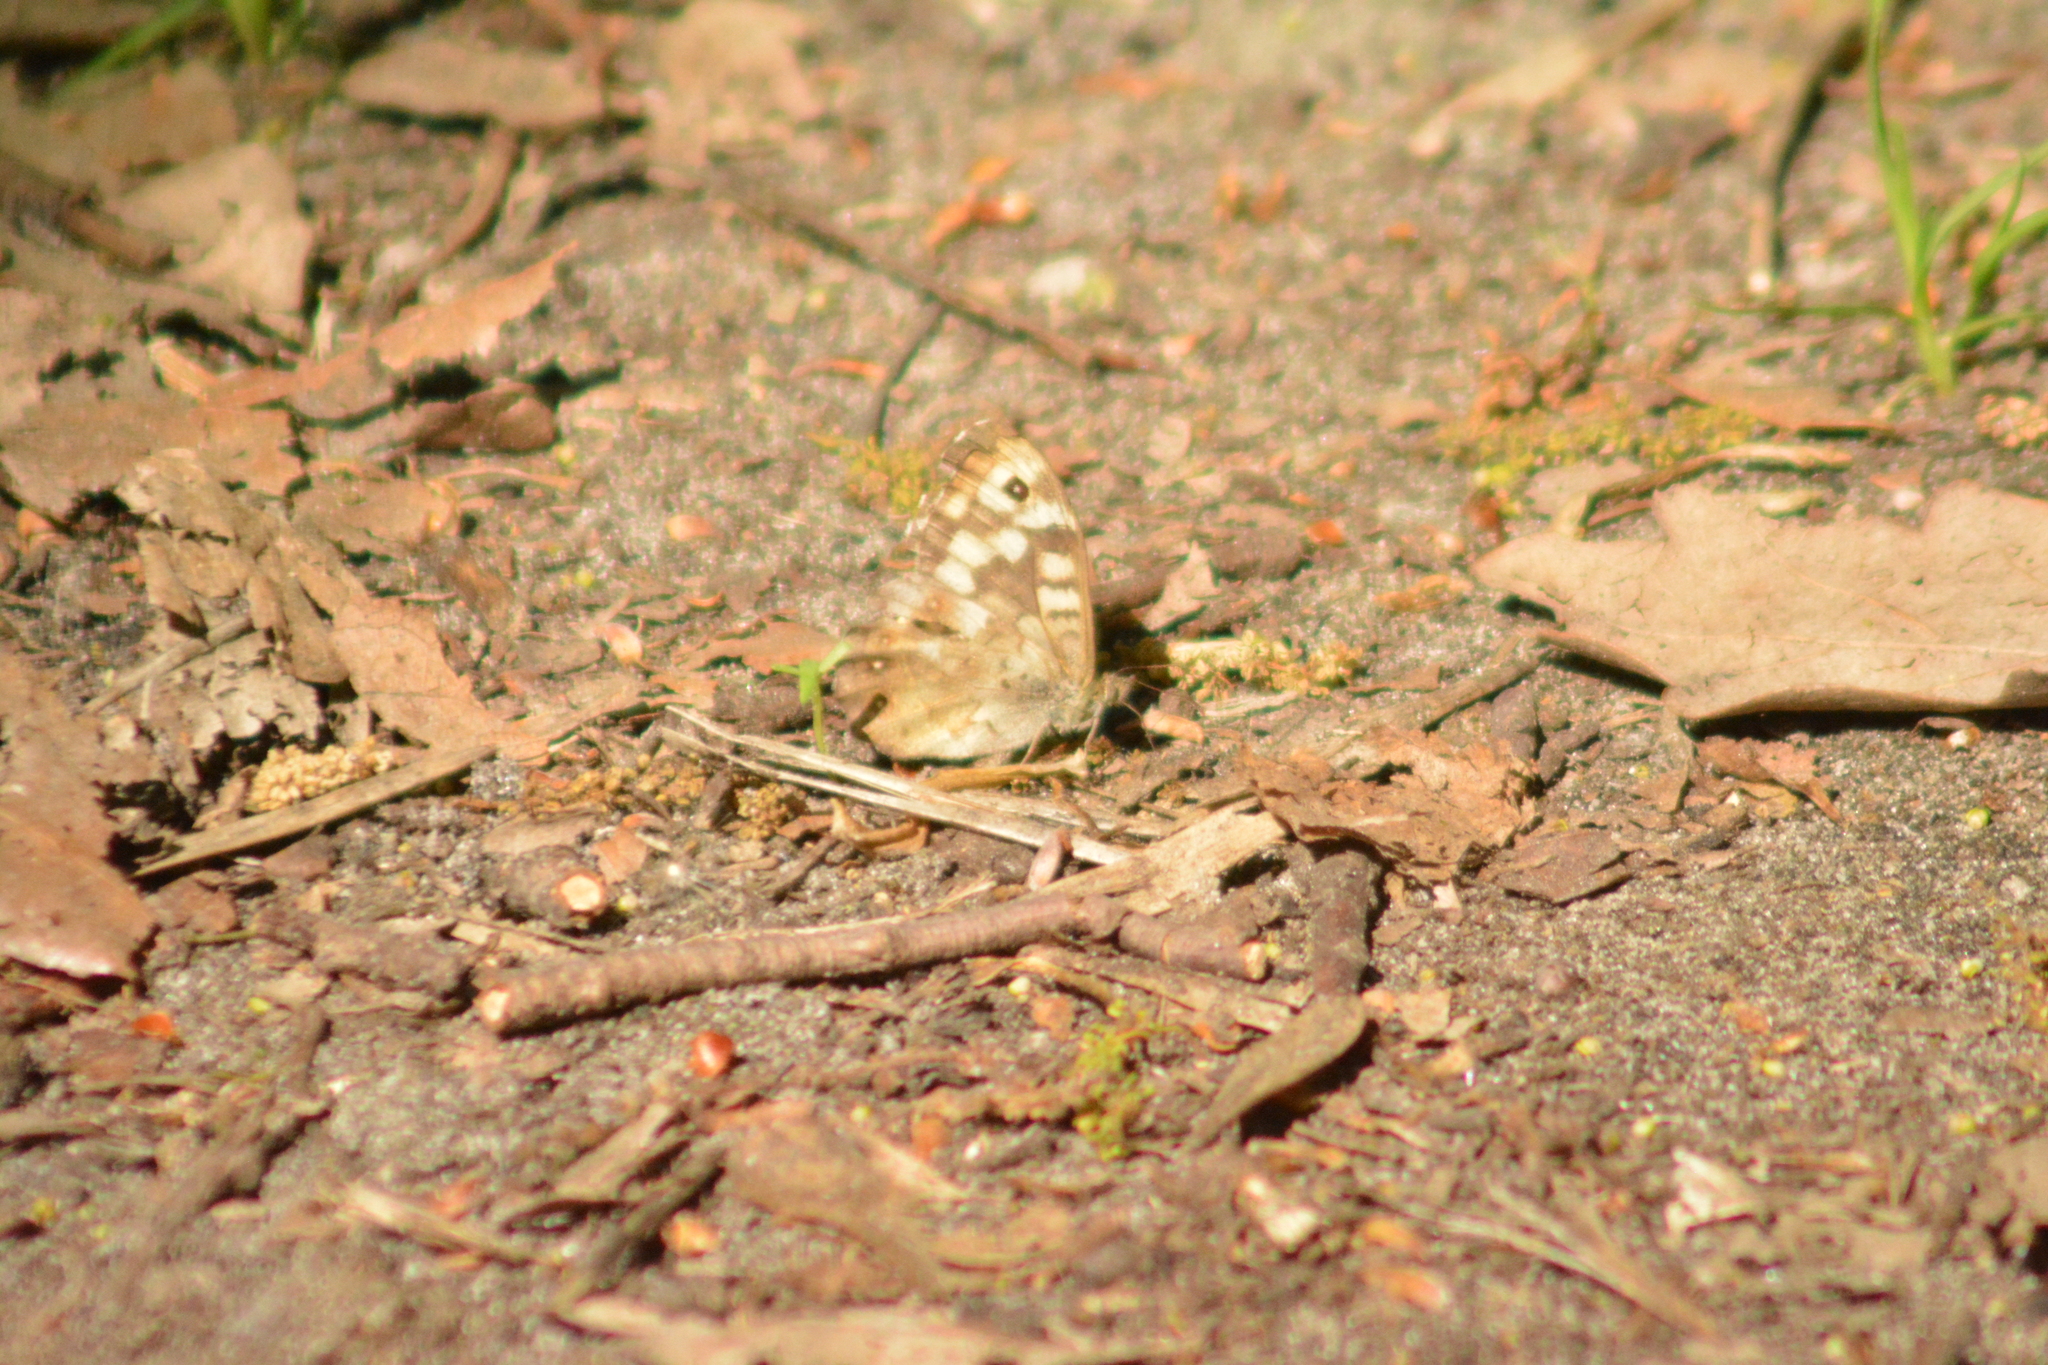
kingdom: Animalia
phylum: Arthropoda
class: Insecta
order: Lepidoptera
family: Nymphalidae
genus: Pararge
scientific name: Pararge aegeria
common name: Speckled wood
